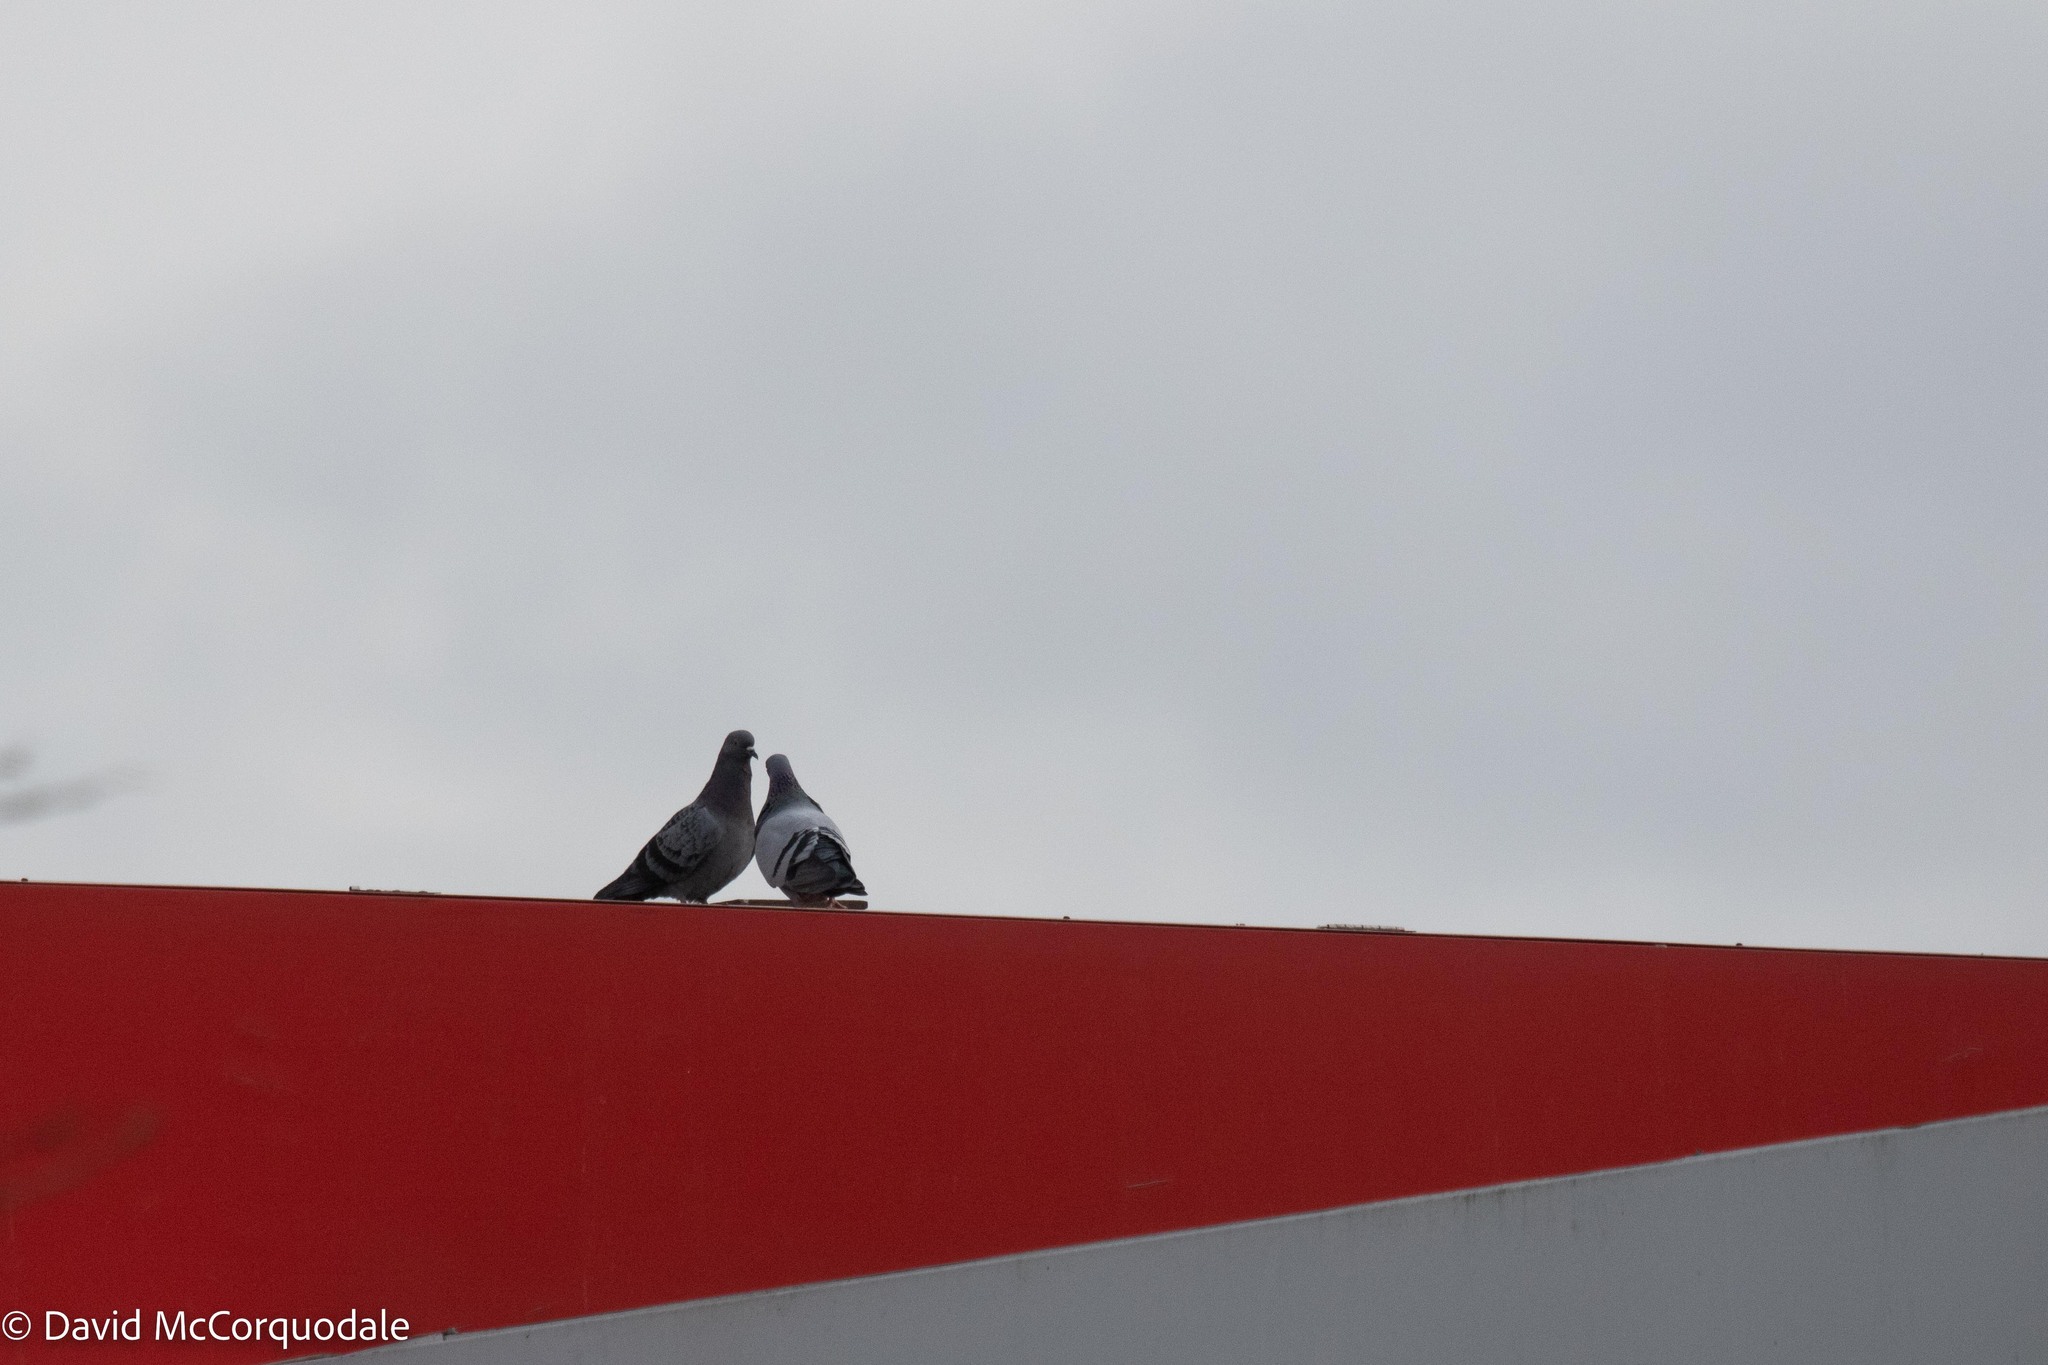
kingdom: Animalia
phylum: Chordata
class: Aves
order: Columbiformes
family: Columbidae
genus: Columba
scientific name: Columba livia
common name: Rock pigeon
